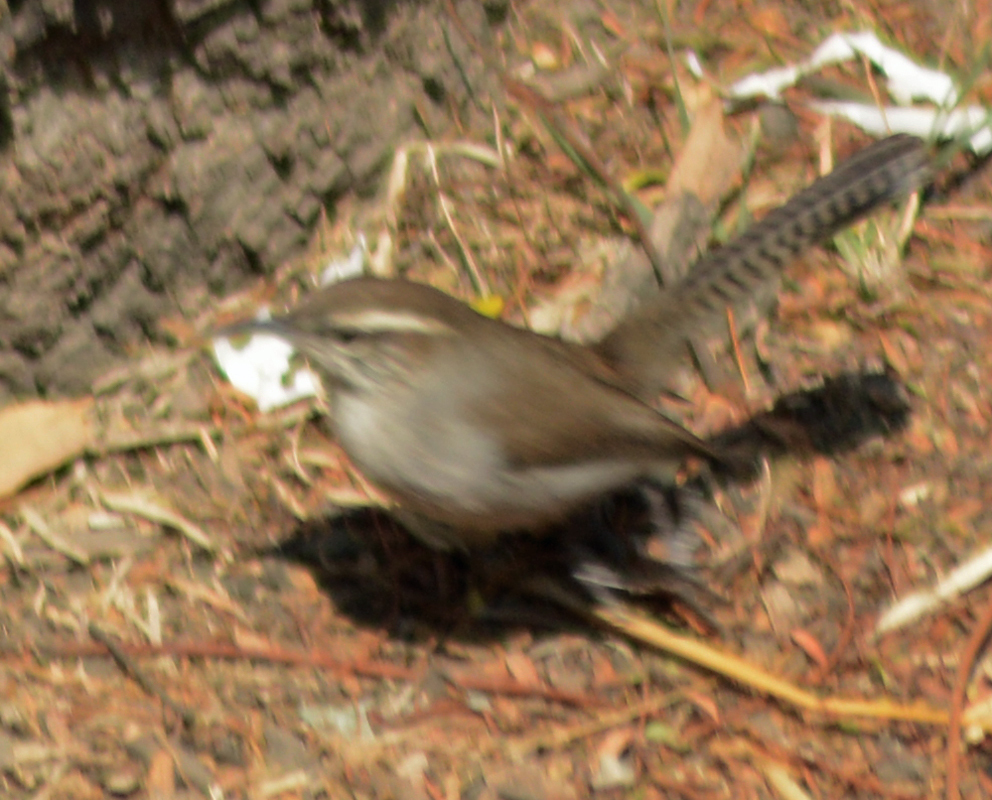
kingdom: Animalia
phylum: Chordata
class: Aves
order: Passeriformes
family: Troglodytidae
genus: Thryomanes
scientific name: Thryomanes bewickii
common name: Bewick's wren
